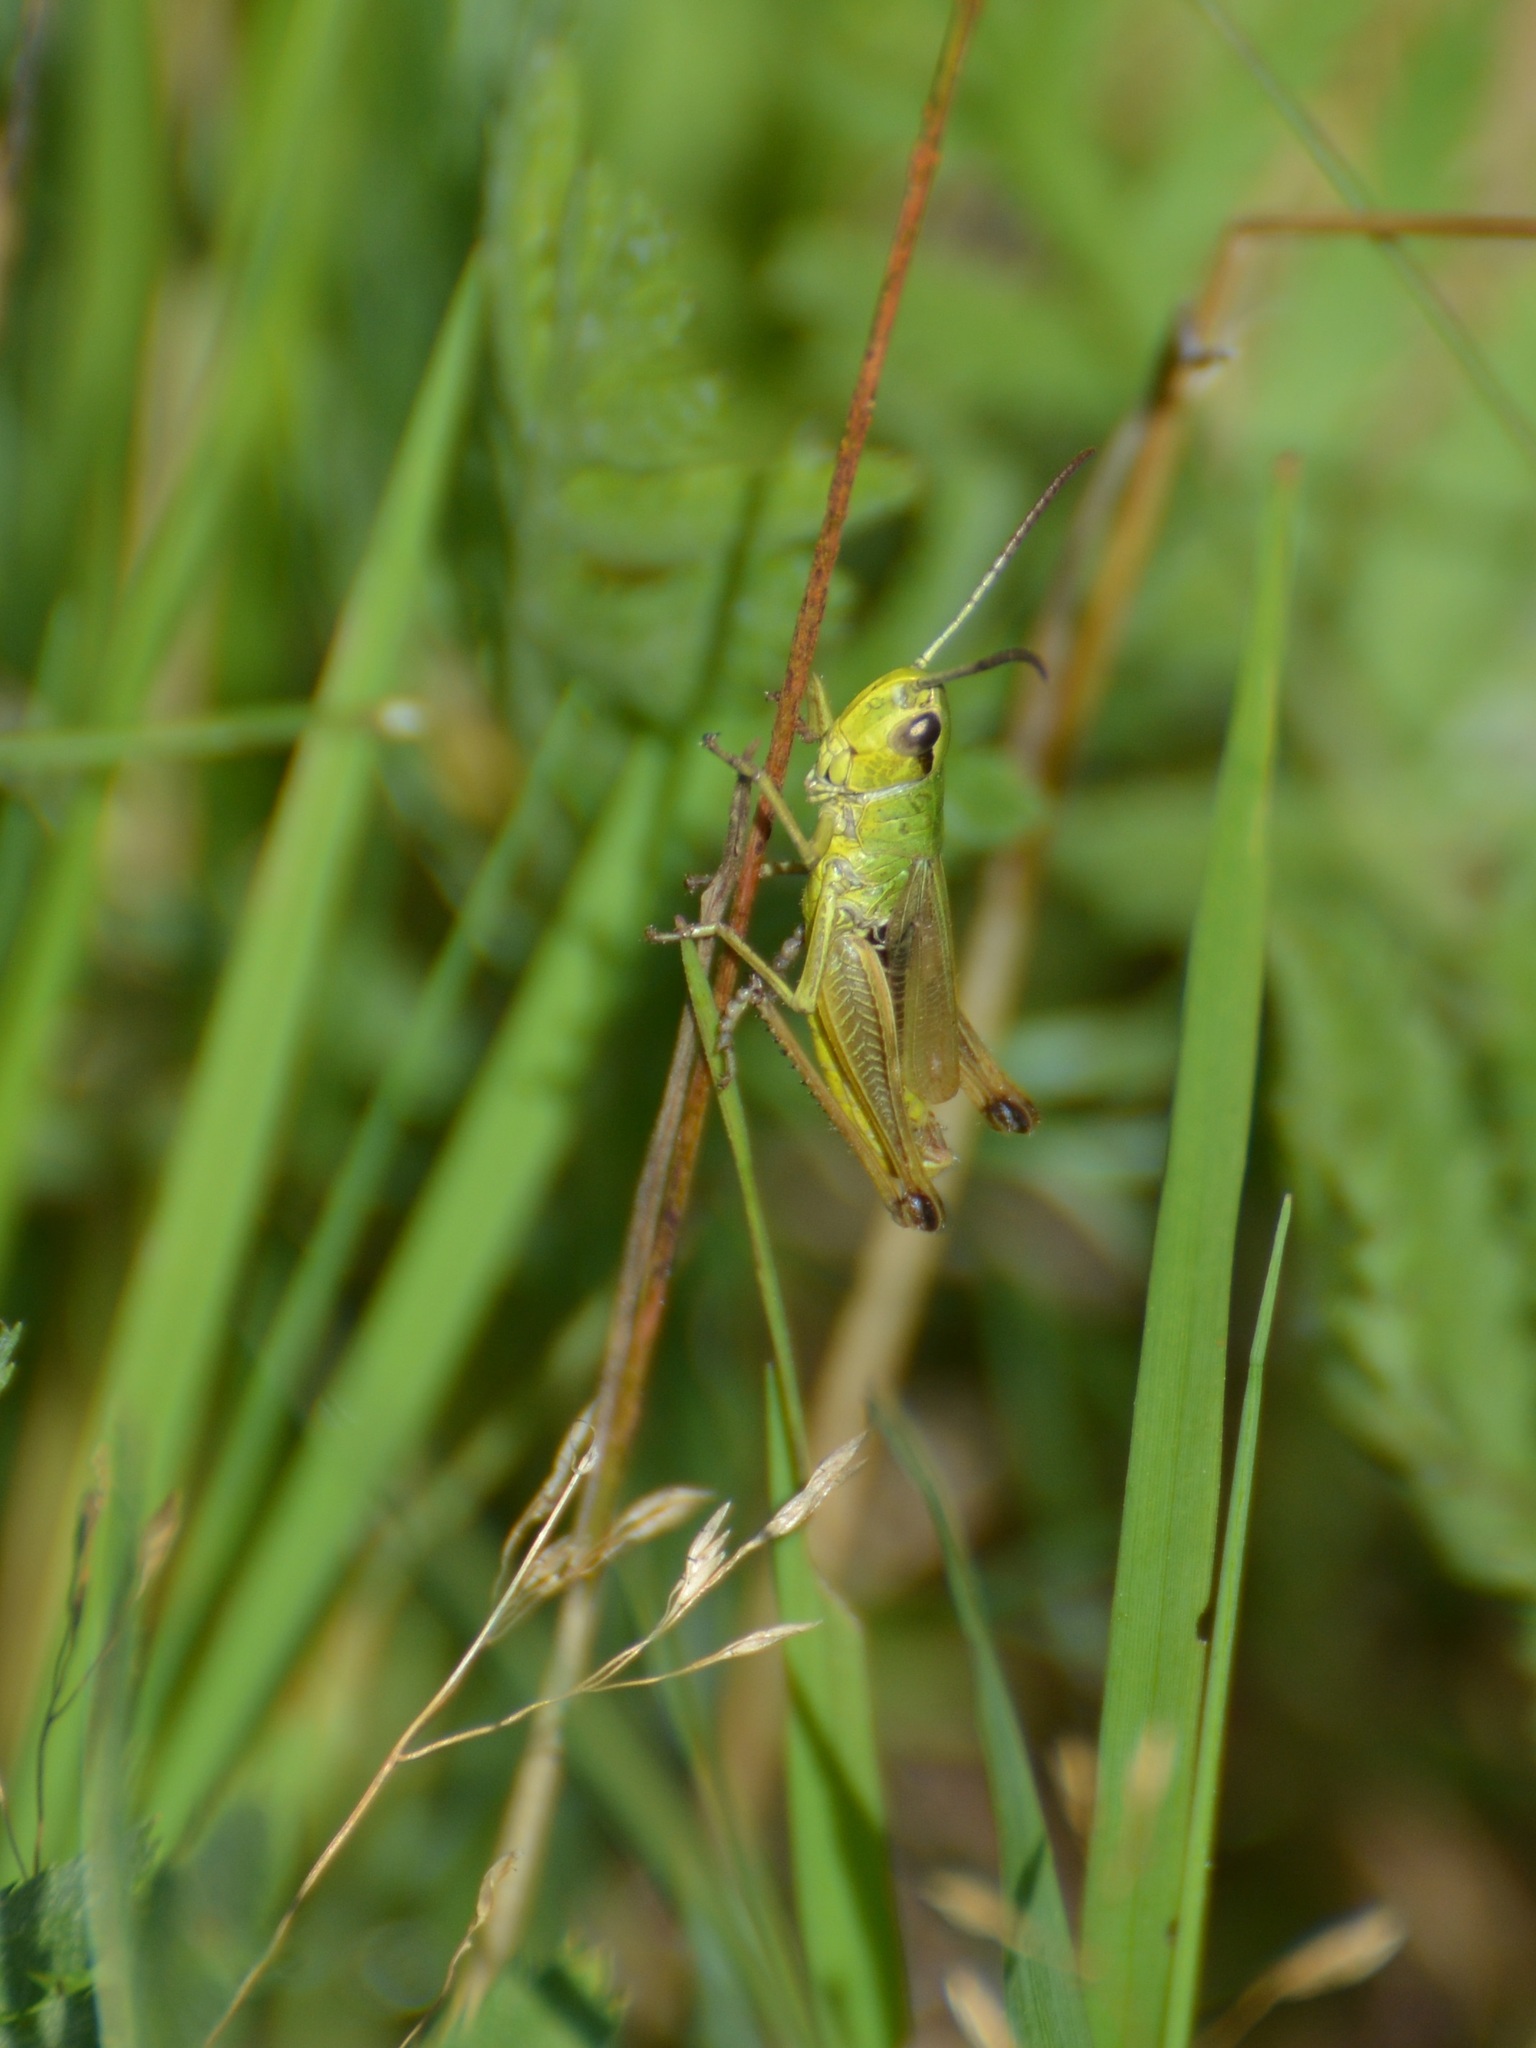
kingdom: Animalia
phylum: Arthropoda
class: Insecta
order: Orthoptera
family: Acrididae
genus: Pseudochorthippus
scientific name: Pseudochorthippus parallelus
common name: Meadow grasshopper
